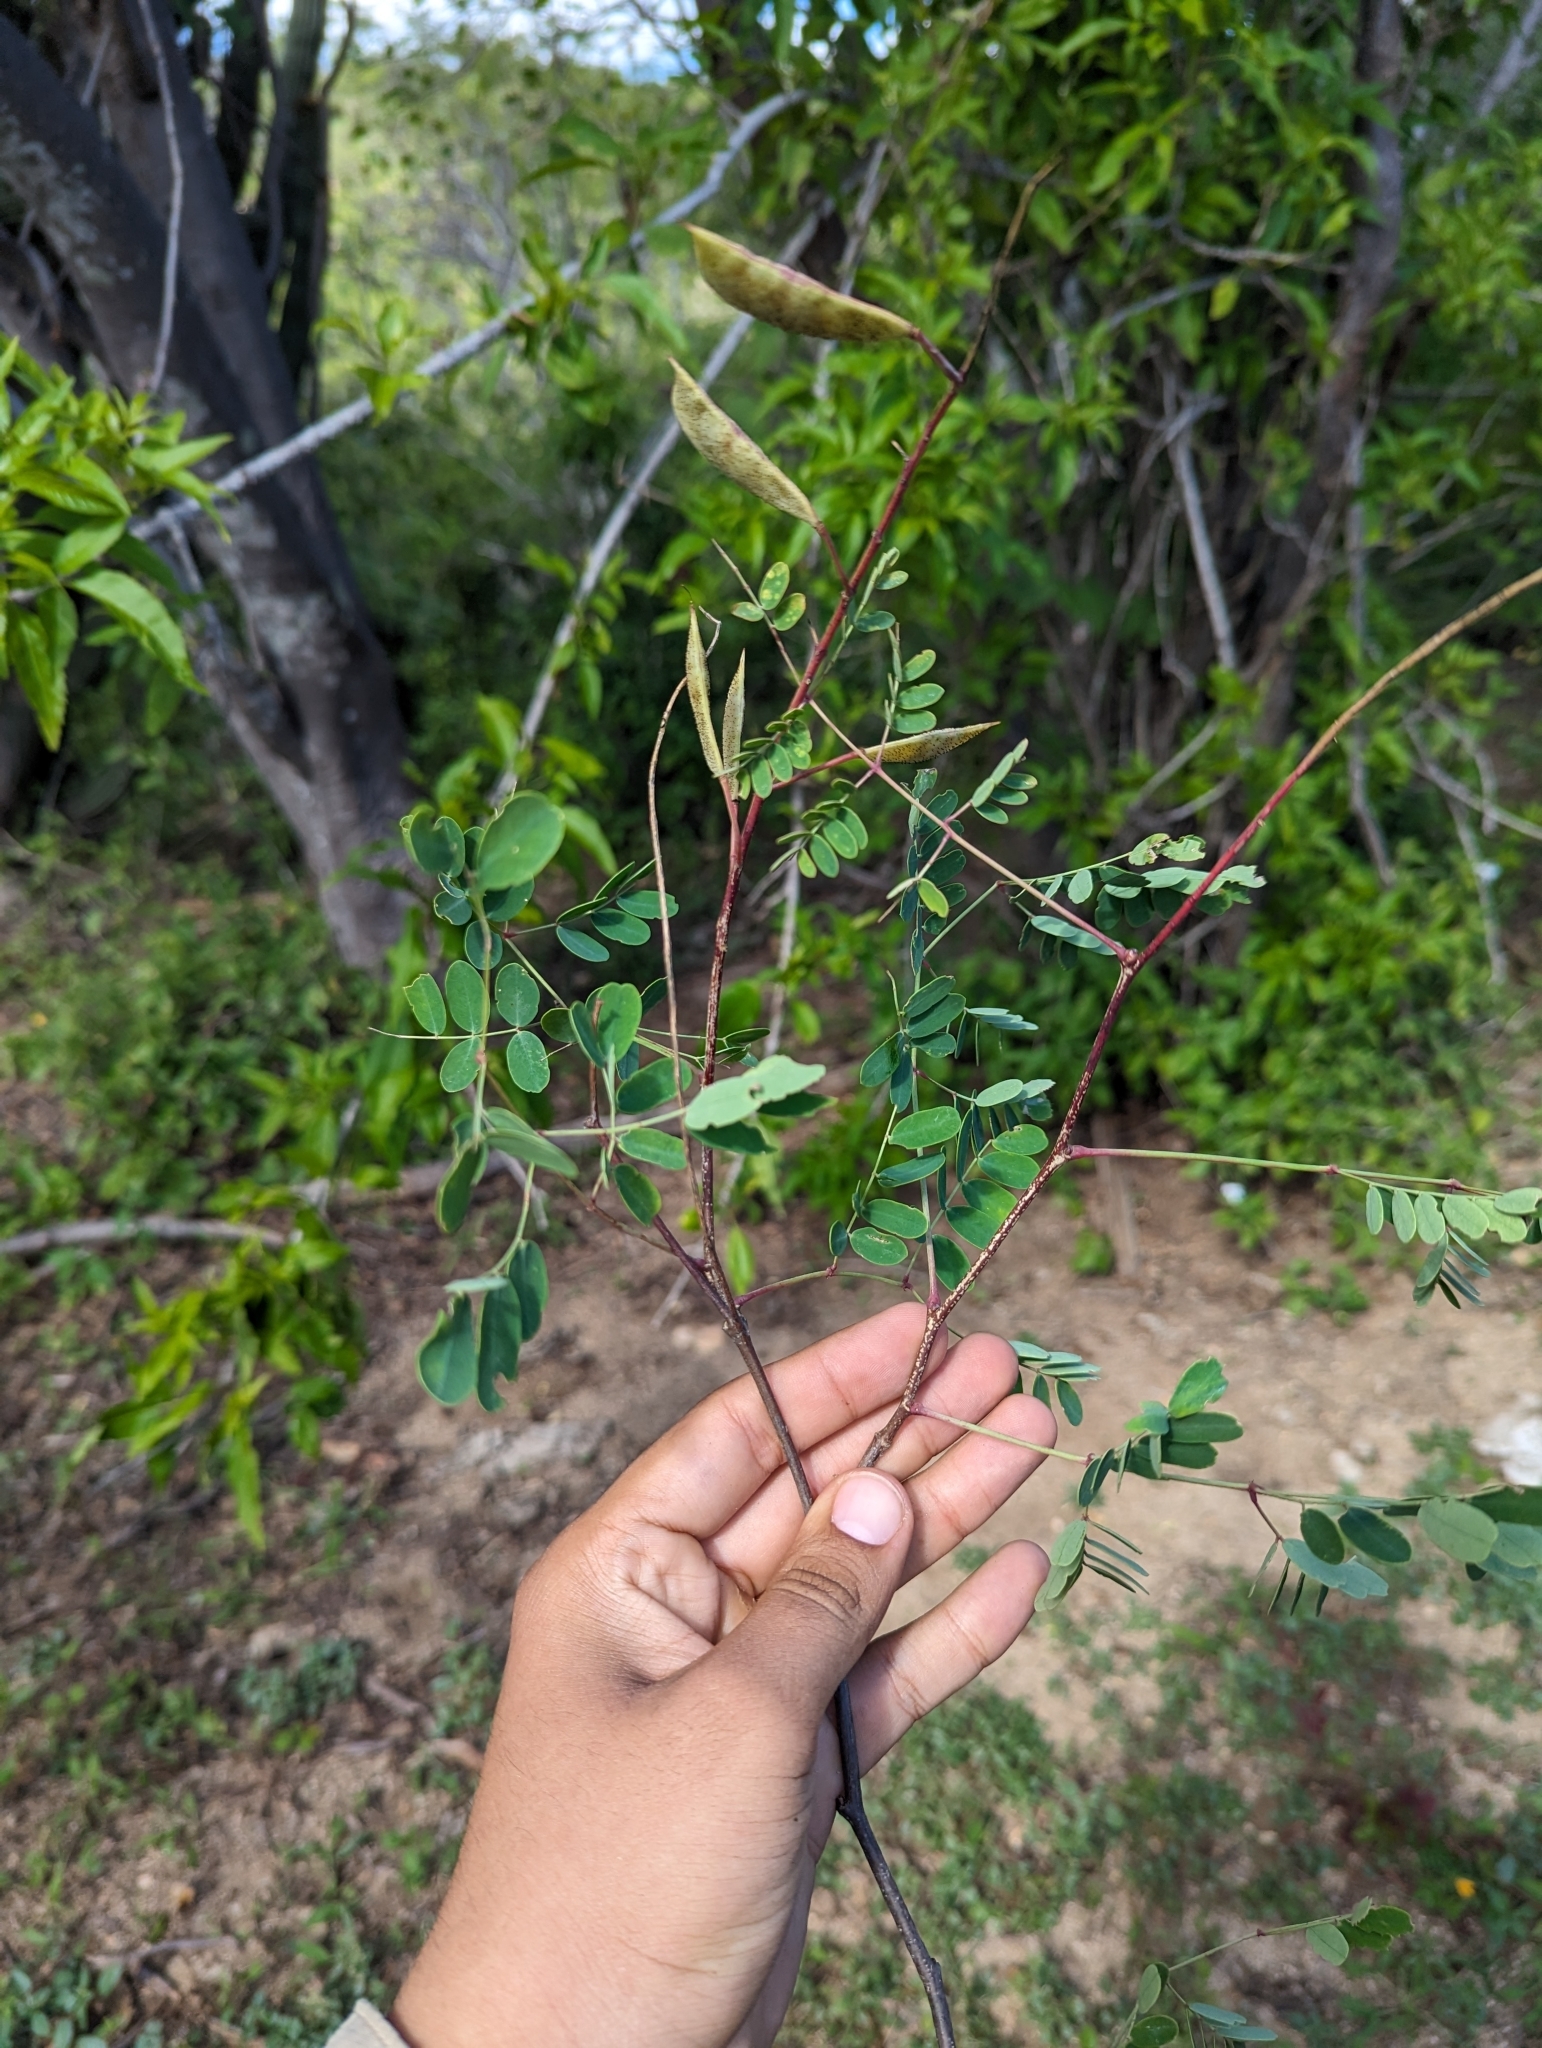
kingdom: Plantae
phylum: Tracheophyta
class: Magnoliopsida
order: Fabales
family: Fabaceae
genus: Erythrostemon
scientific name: Erythrostemon pannosus
